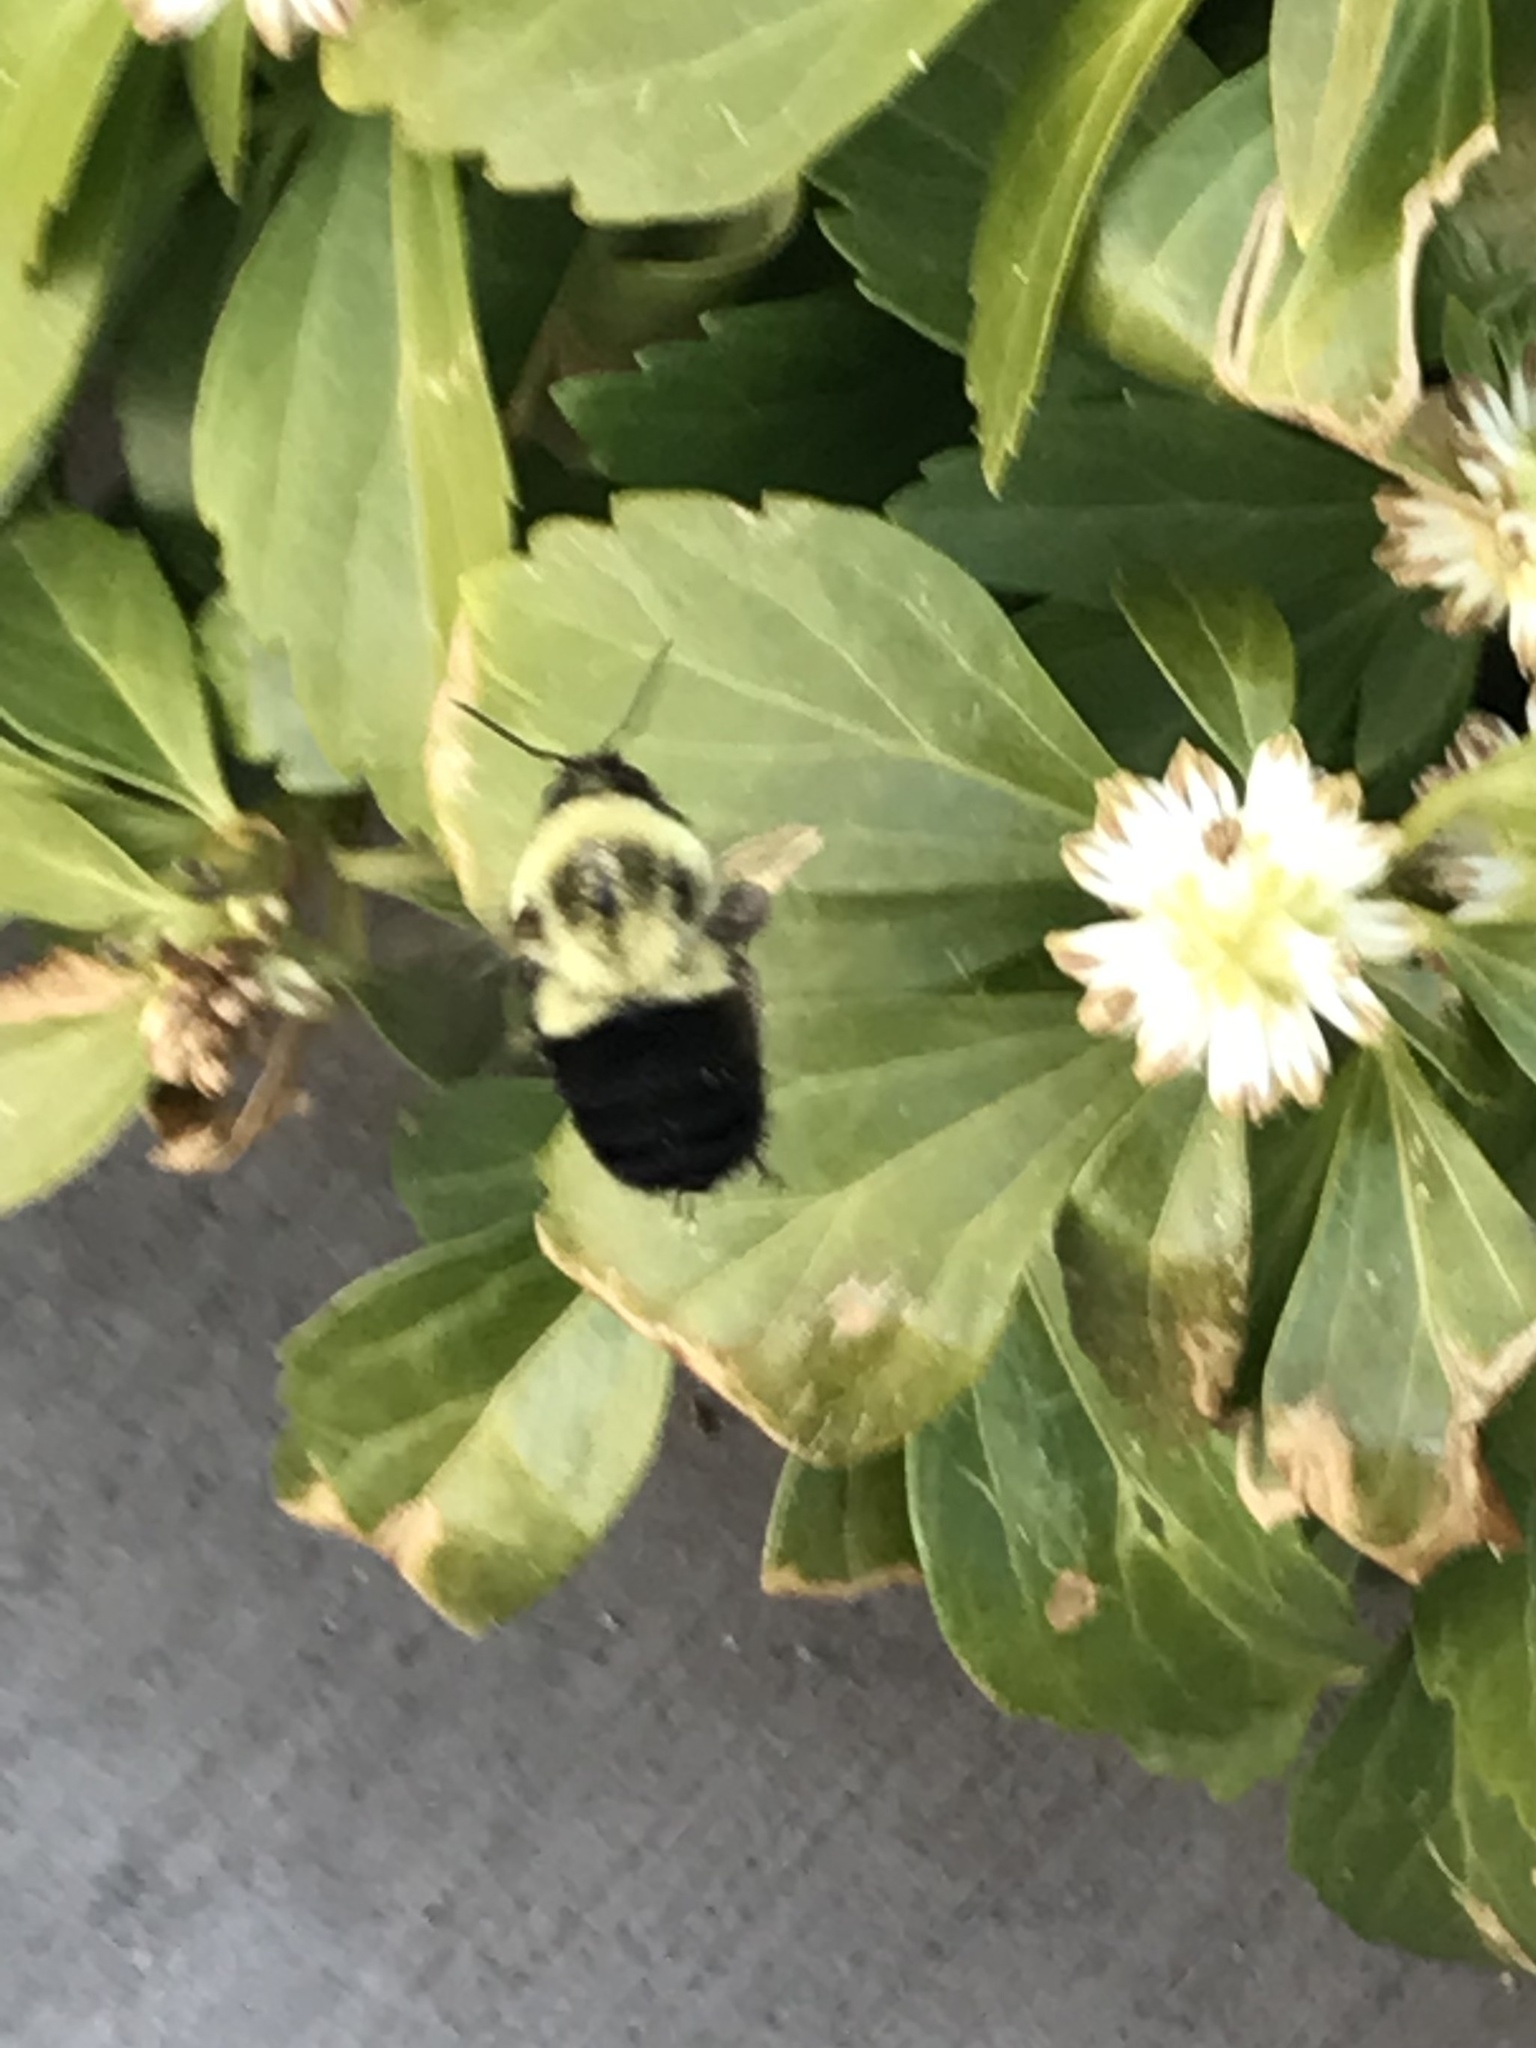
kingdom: Animalia
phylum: Arthropoda
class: Insecta
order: Hymenoptera
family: Apidae
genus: Bombus
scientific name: Bombus impatiens
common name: Common eastern bumble bee
